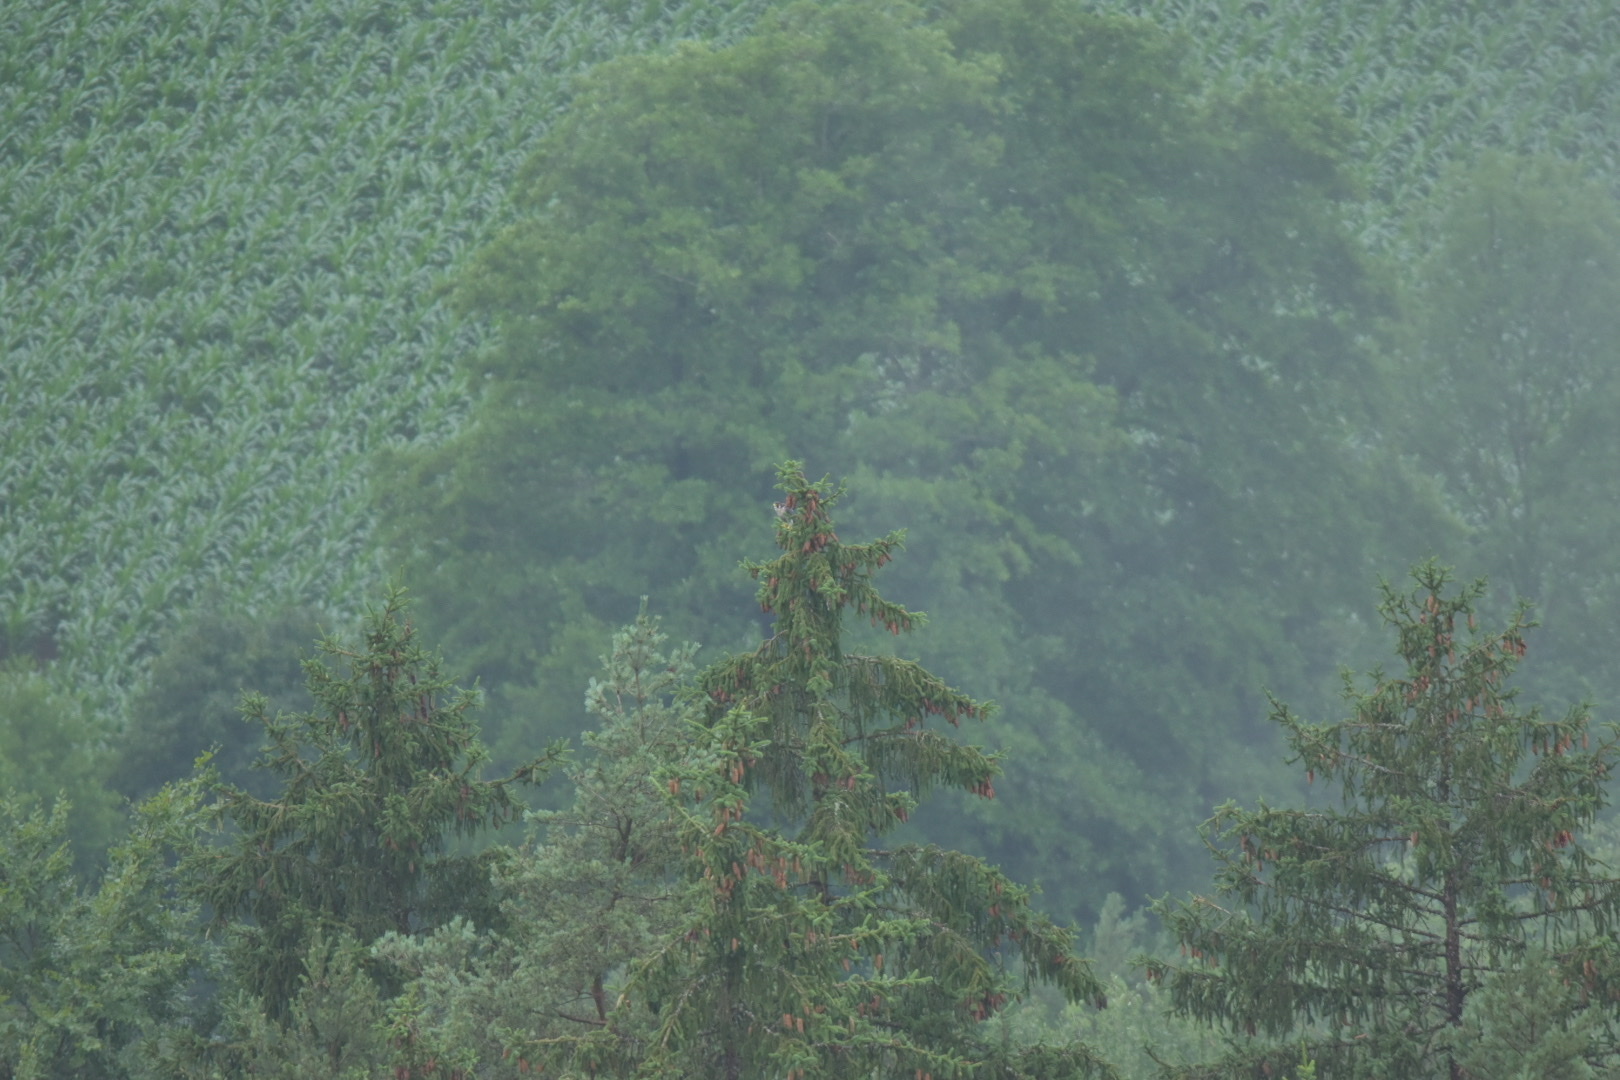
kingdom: Animalia
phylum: Chordata
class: Aves
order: Falconiformes
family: Falconidae
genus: Falco
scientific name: Falco peregrinus
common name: Peregrine falcon
